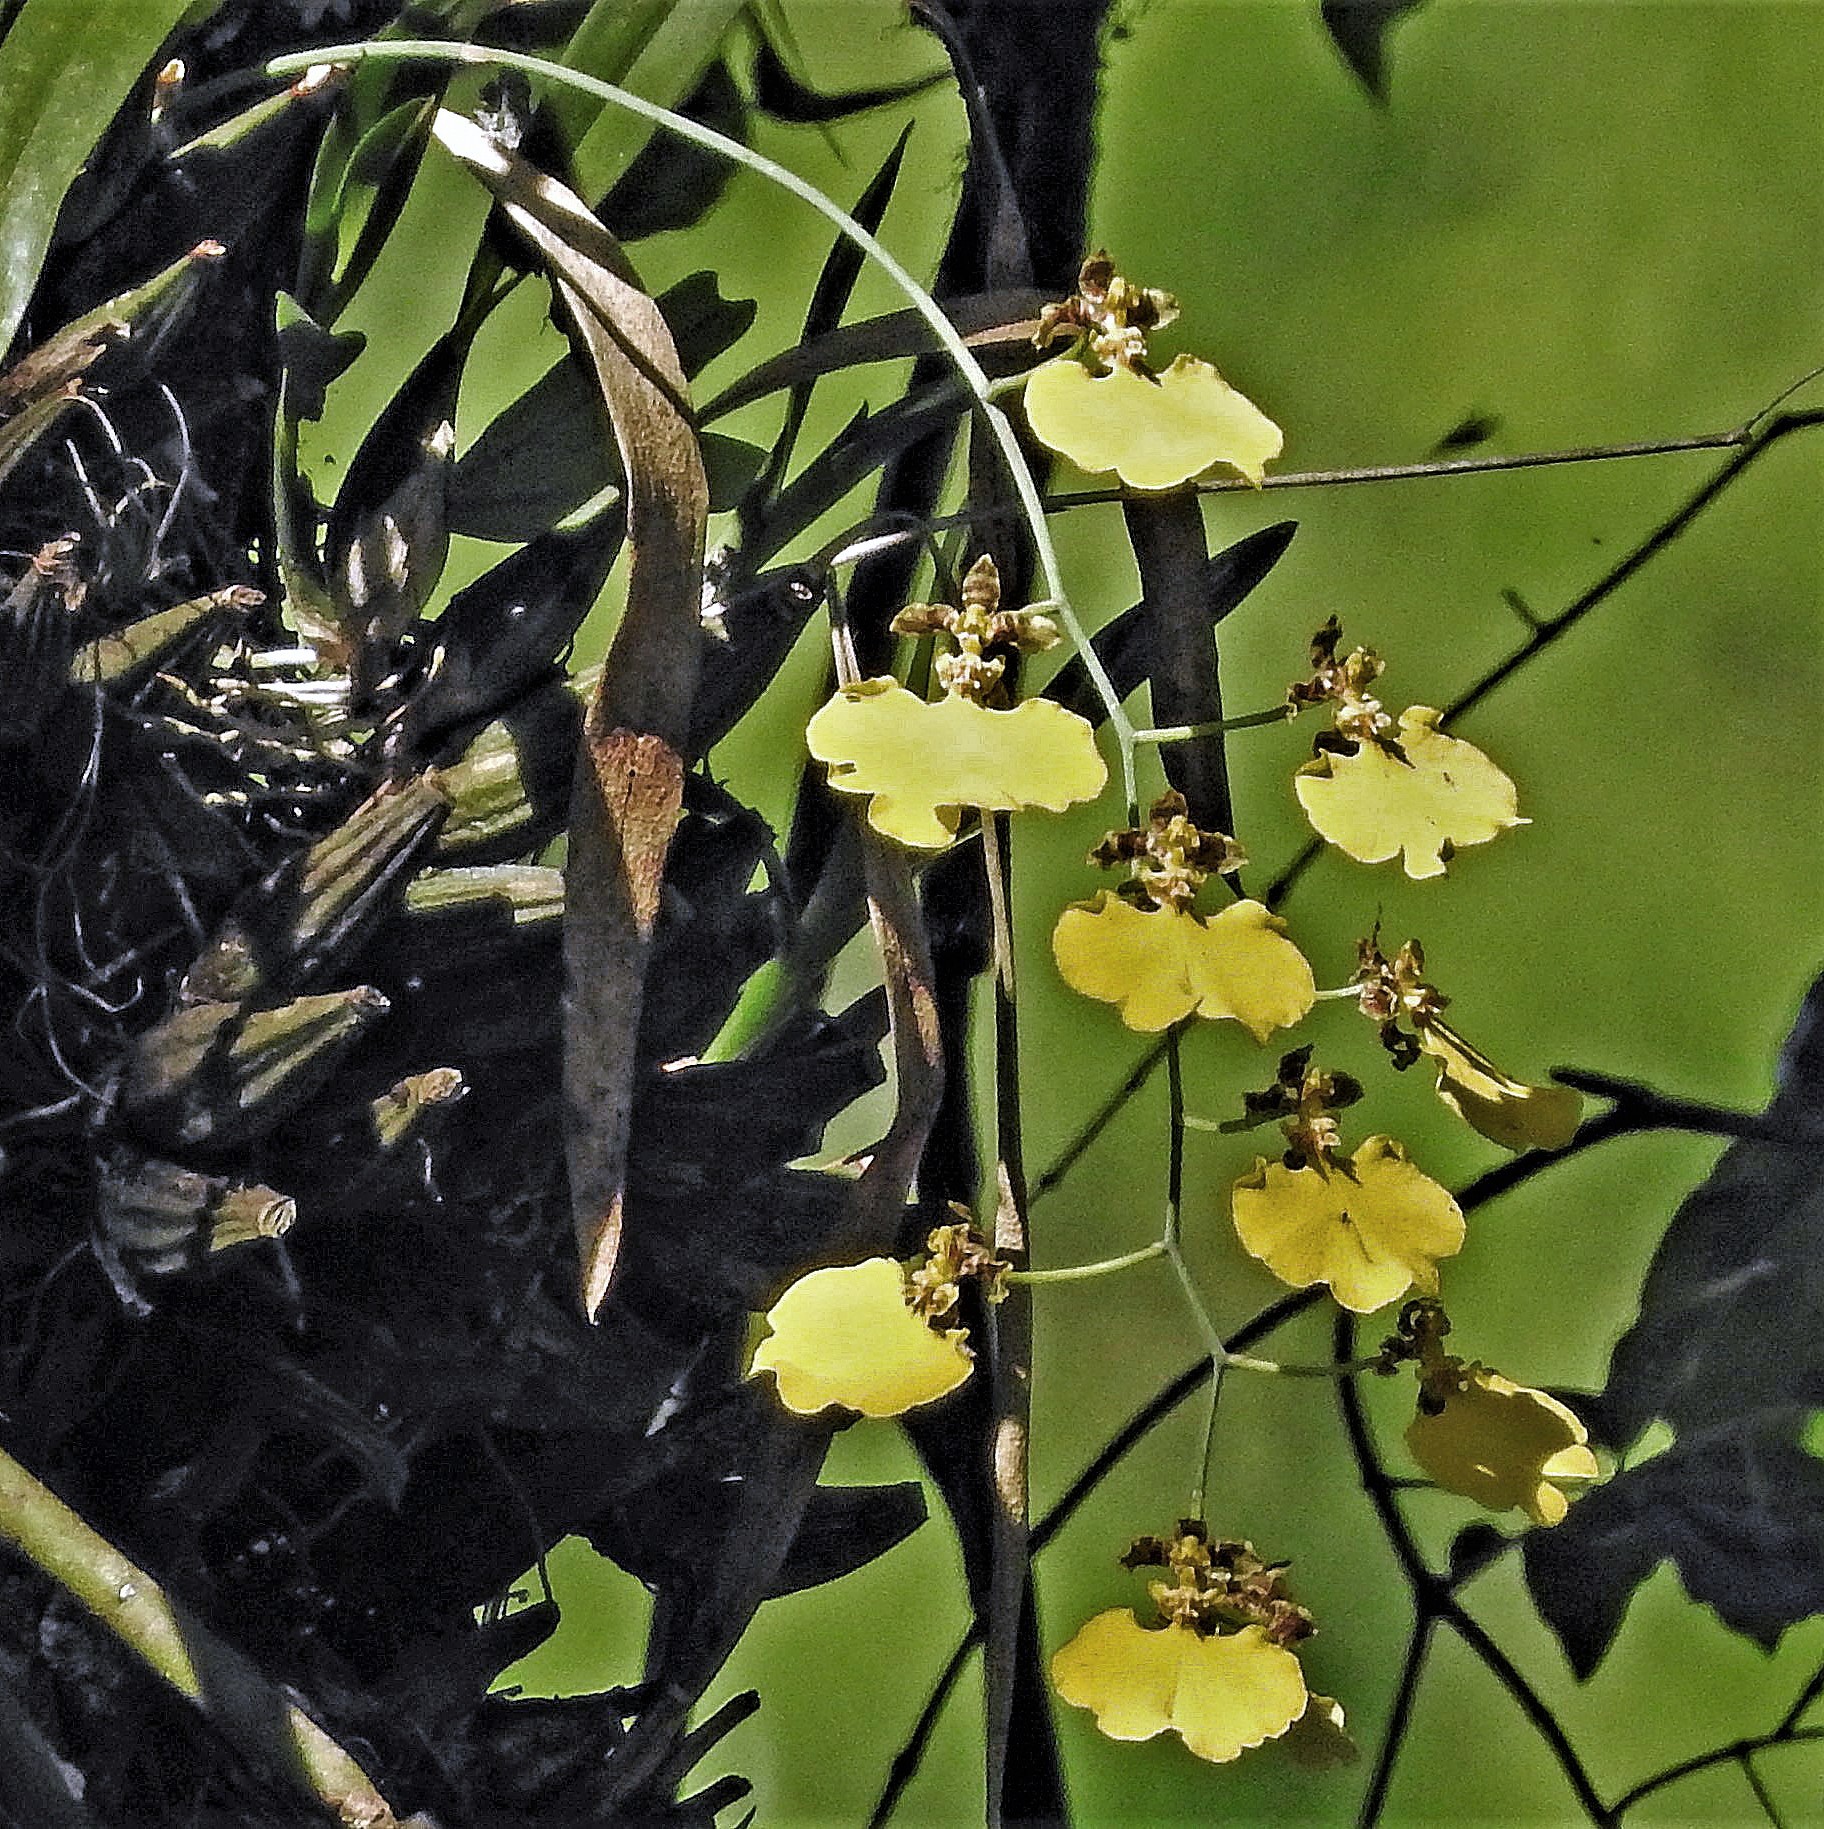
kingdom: Plantae
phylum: Tracheophyta
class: Liliopsida
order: Asparagales
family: Orchidaceae
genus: Gomesa
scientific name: Gomesa bifolia
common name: Dancing ladies
